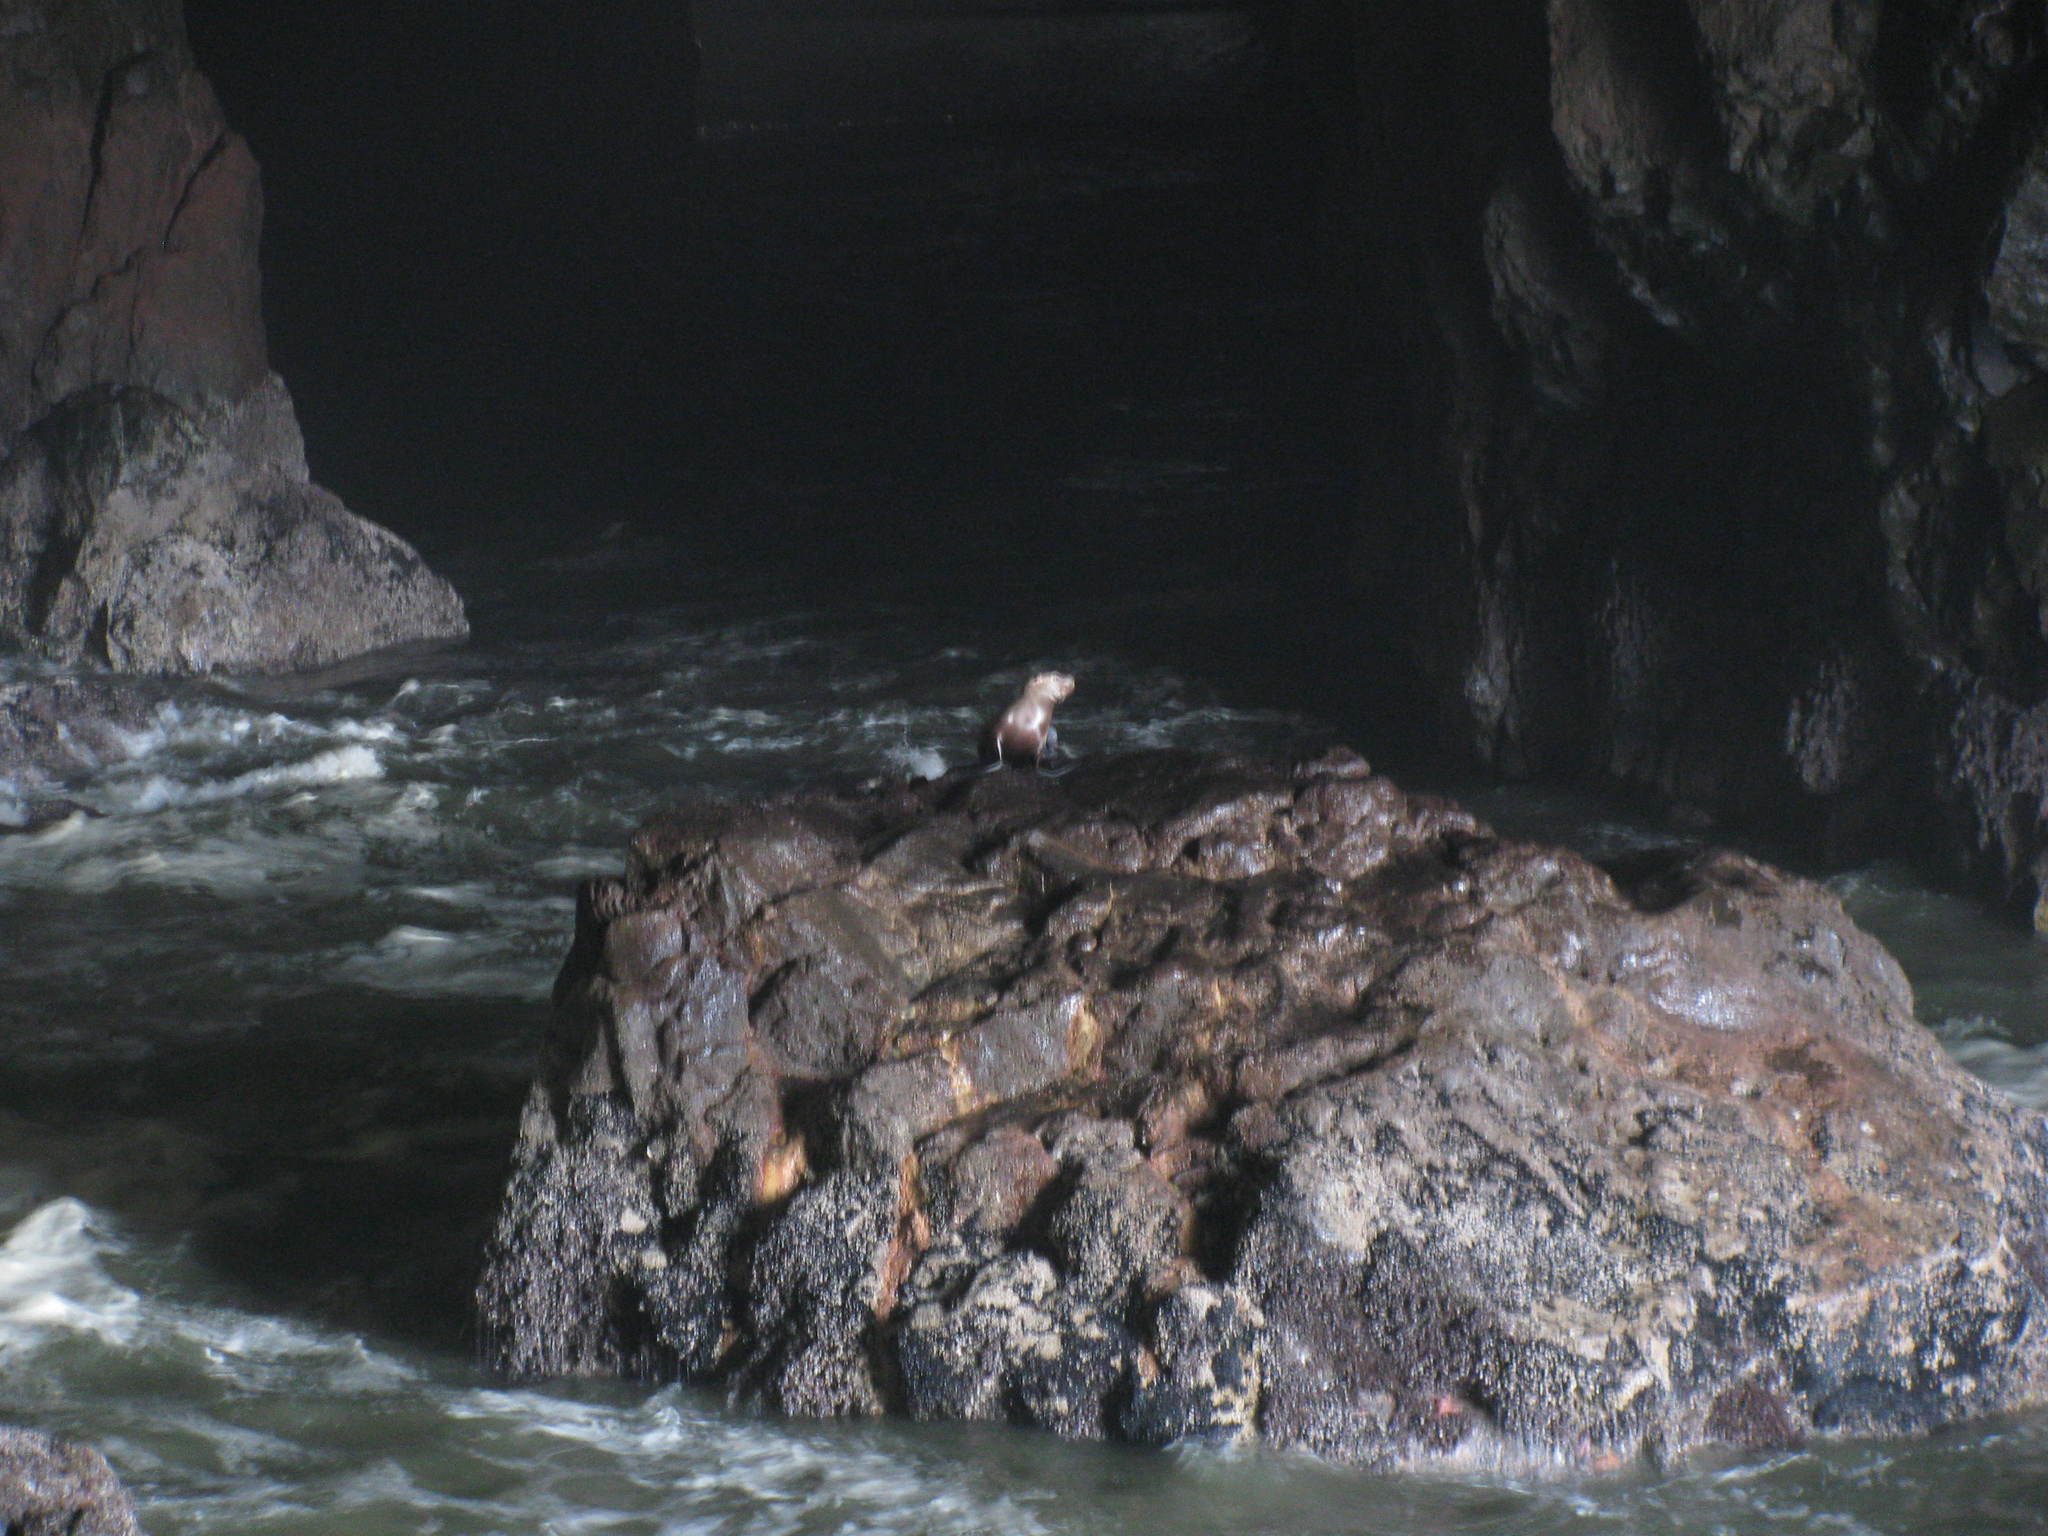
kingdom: Animalia
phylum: Chordata
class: Mammalia
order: Carnivora
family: Otariidae
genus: Eumetopias
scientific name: Eumetopias jubatus
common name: Steller sea lion
